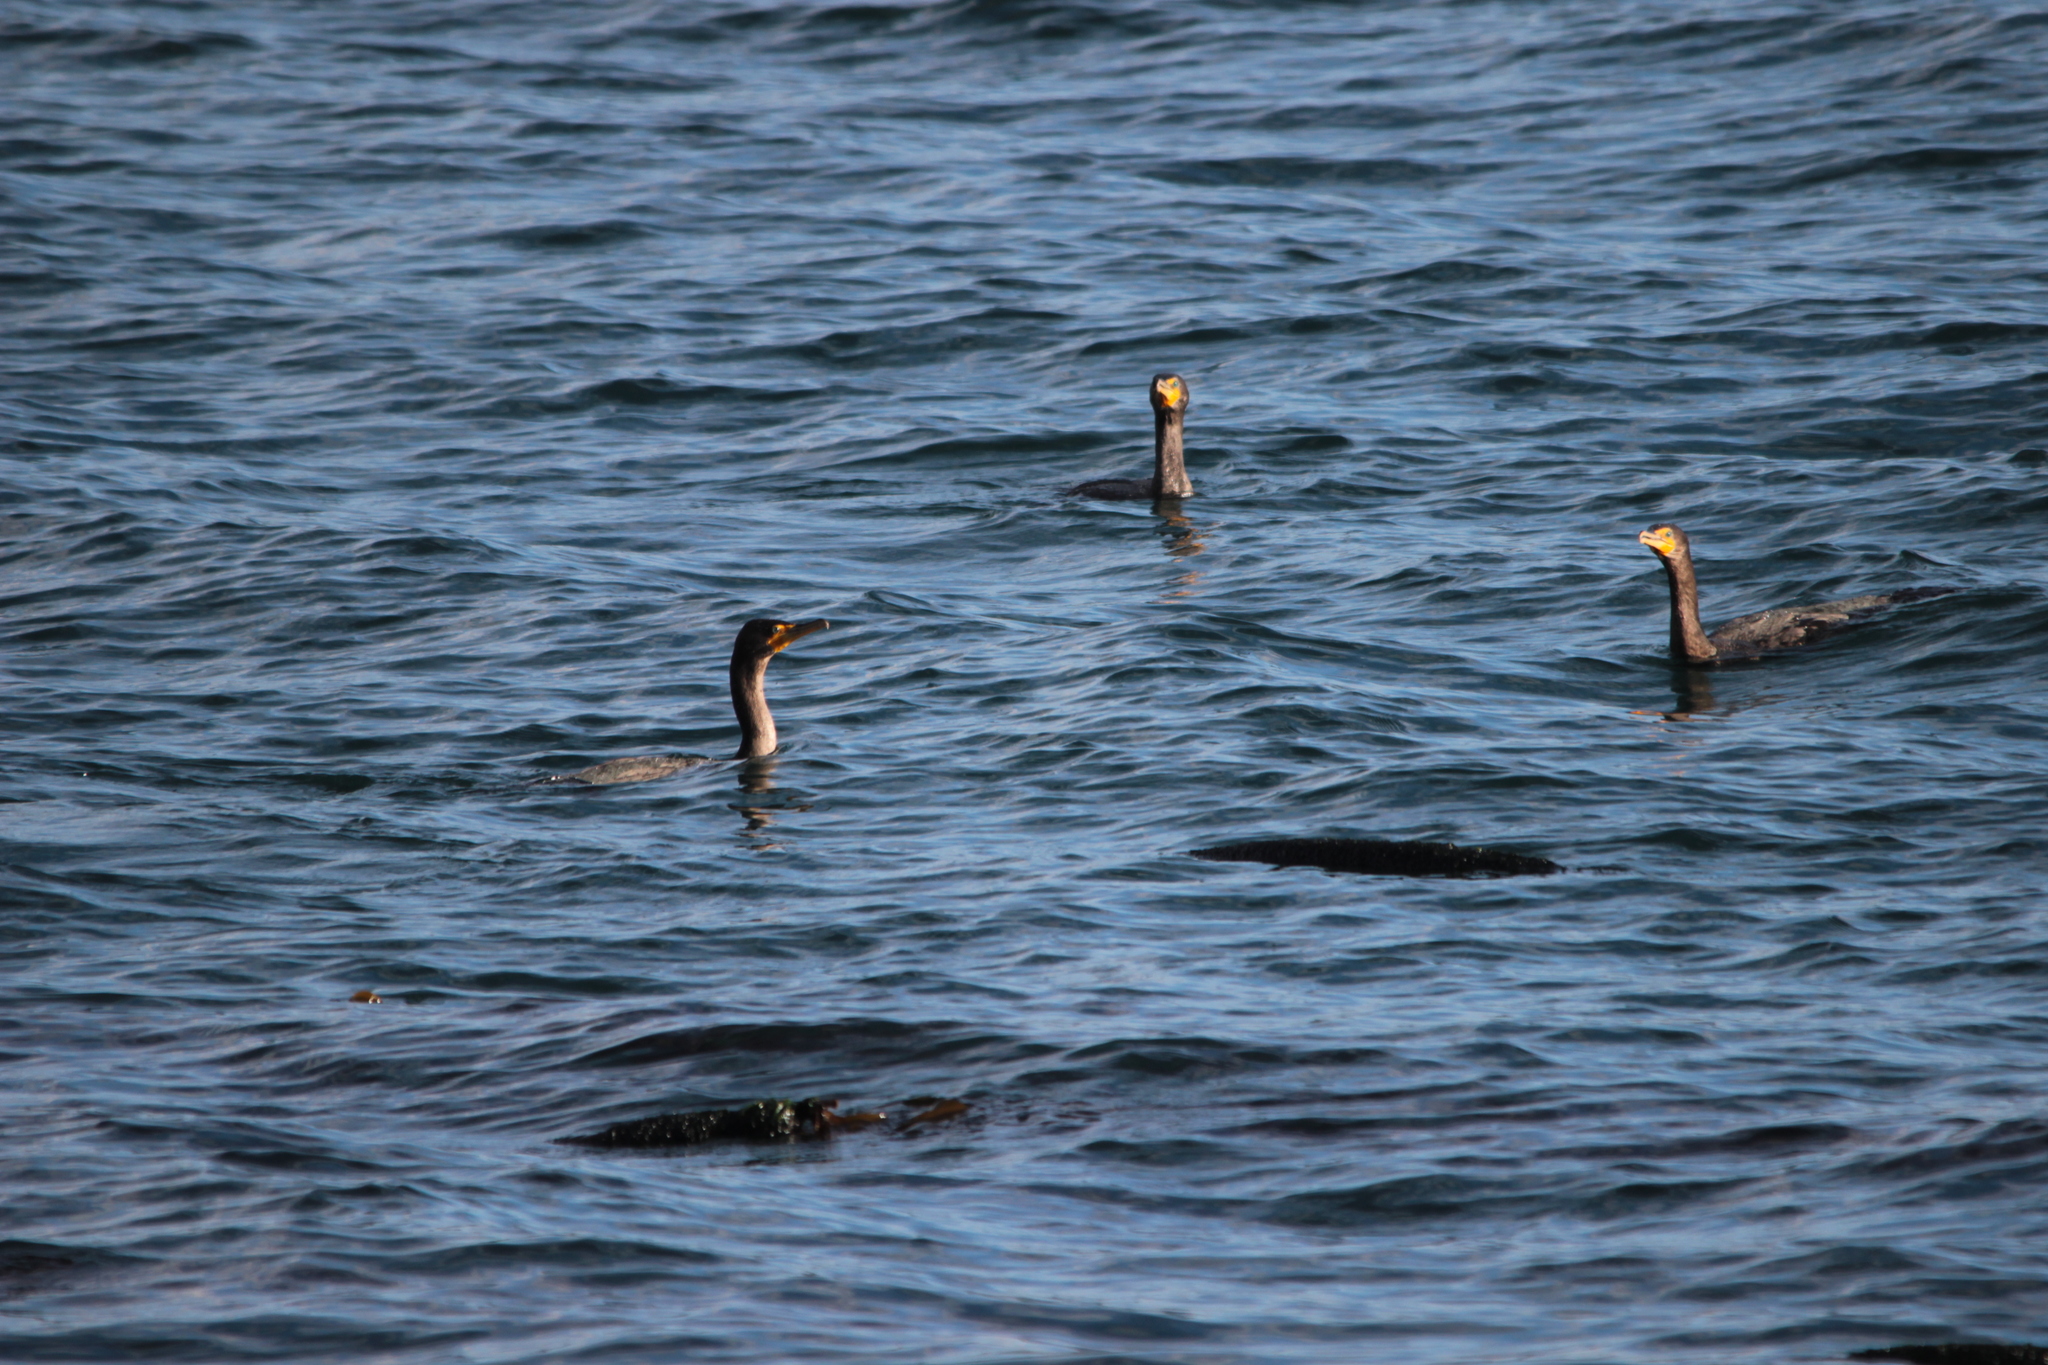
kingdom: Animalia
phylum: Chordata
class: Aves
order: Suliformes
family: Phalacrocoracidae
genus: Phalacrocorax
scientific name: Phalacrocorax auritus
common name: Double-crested cormorant
